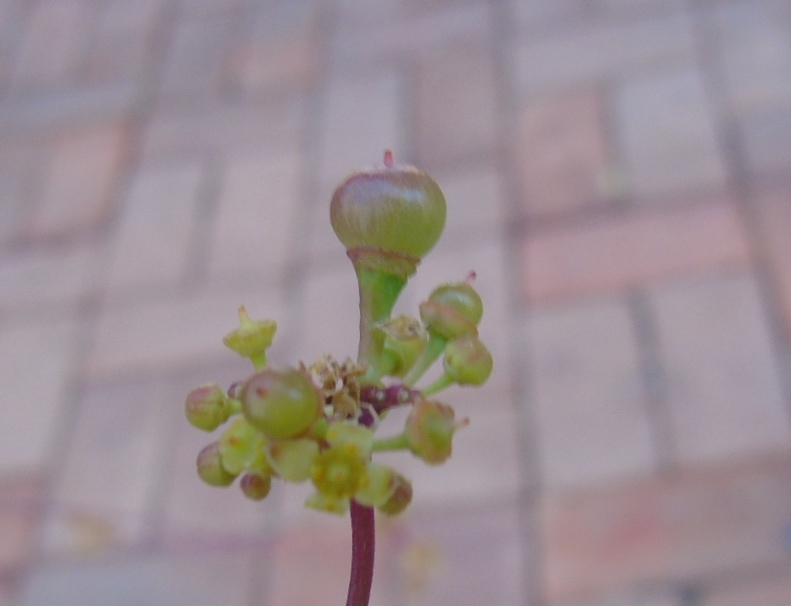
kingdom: Plantae
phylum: Tracheophyta
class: Magnoliopsida
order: Vitales
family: Vitaceae
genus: Parthenocissus
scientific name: Parthenocissus quinquefolia
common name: Virginia-creeper
